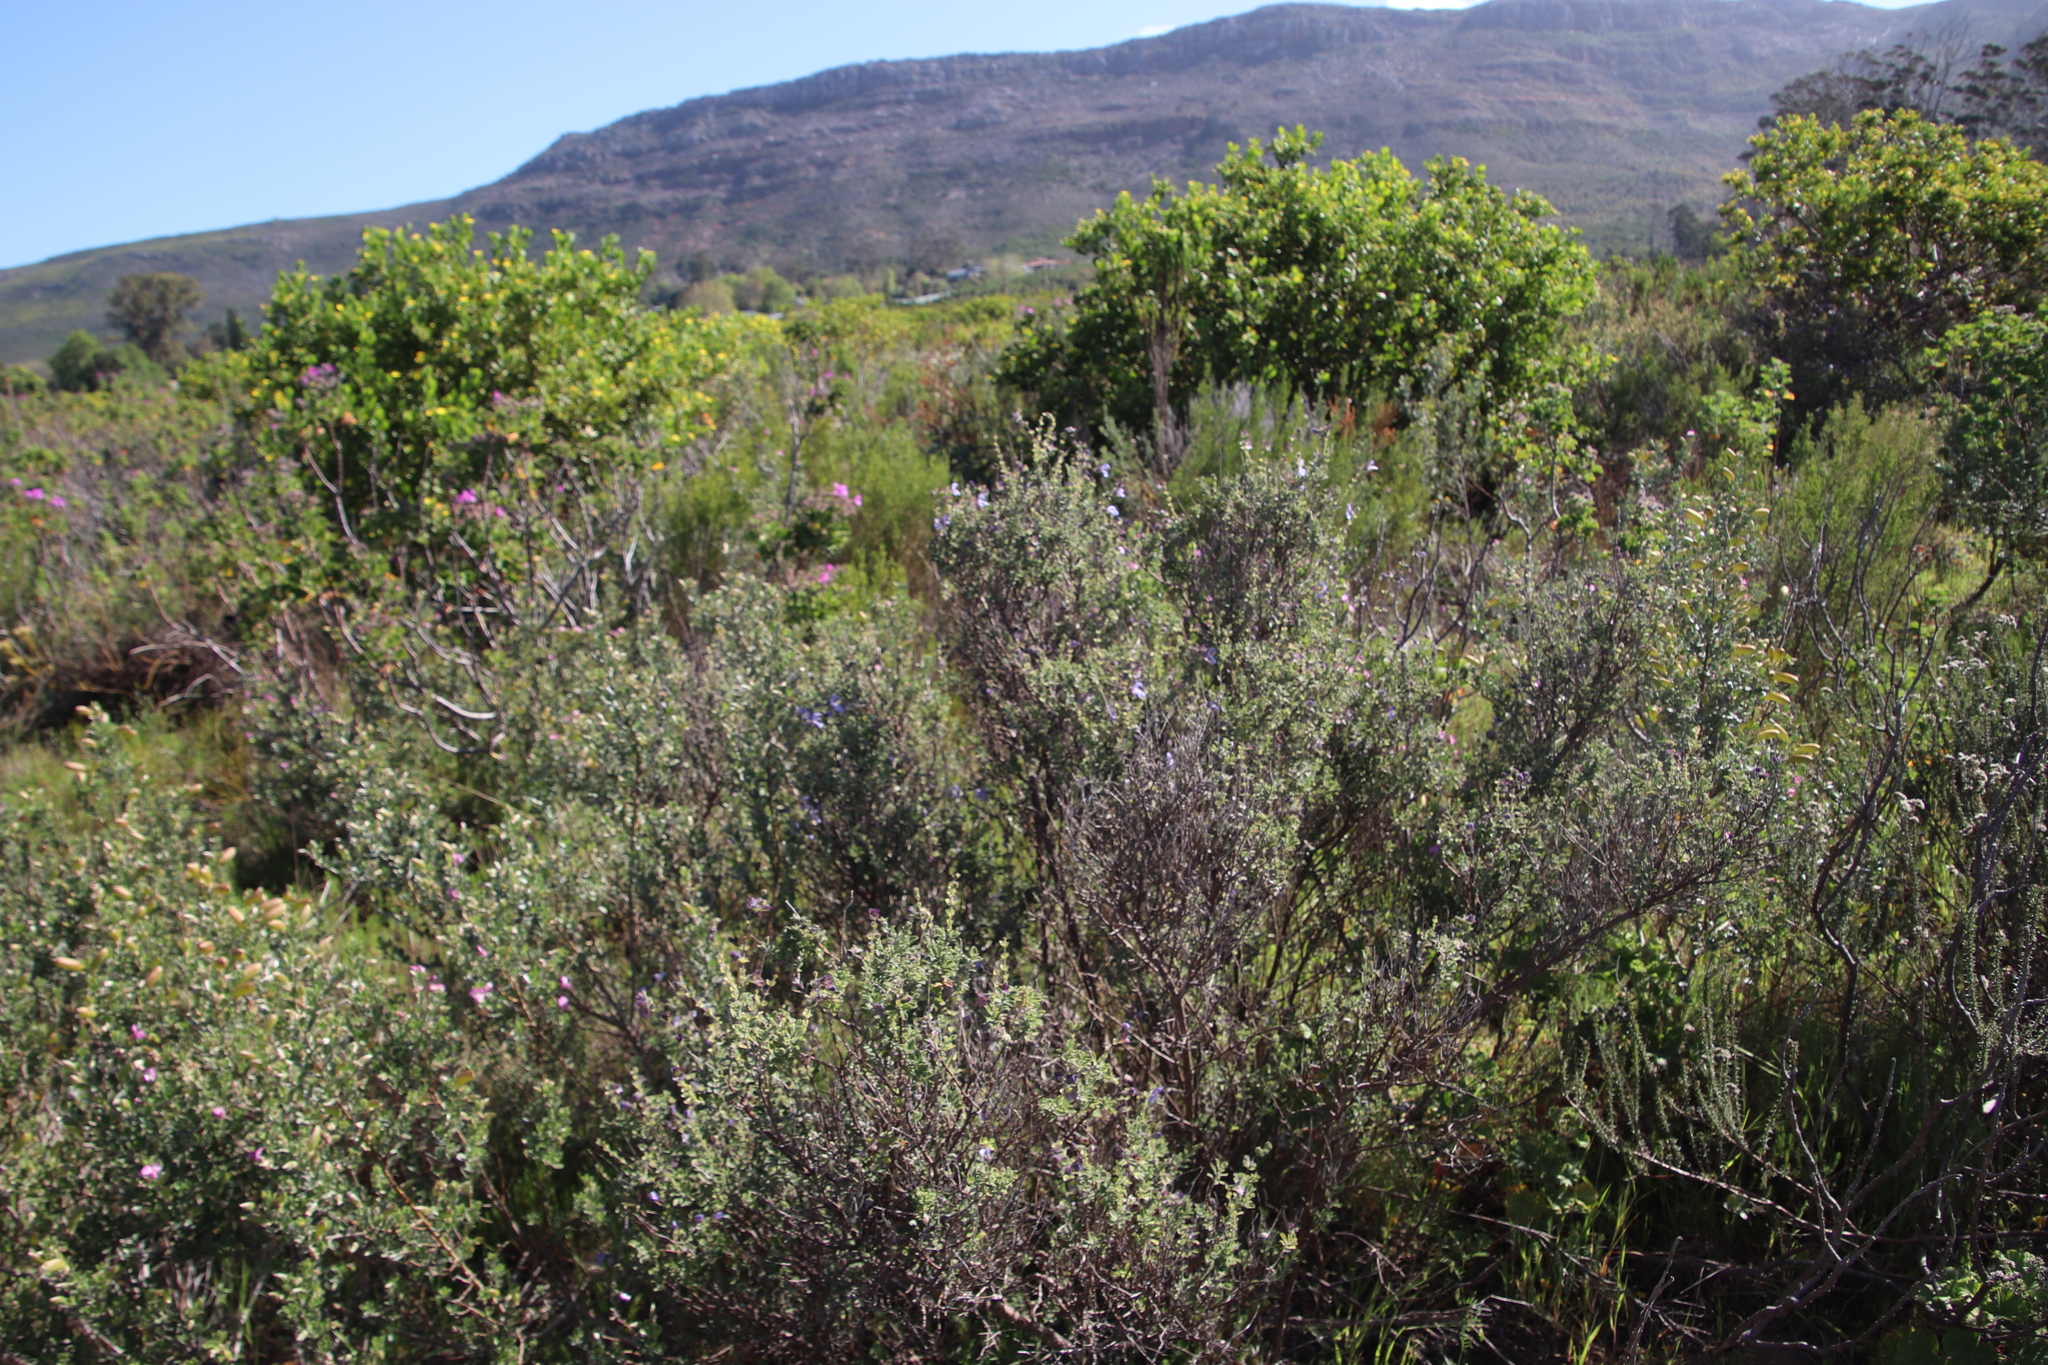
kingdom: Plantae
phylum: Tracheophyta
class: Magnoliopsida
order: Lamiales
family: Lamiaceae
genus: Salvia
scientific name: Salvia africana
